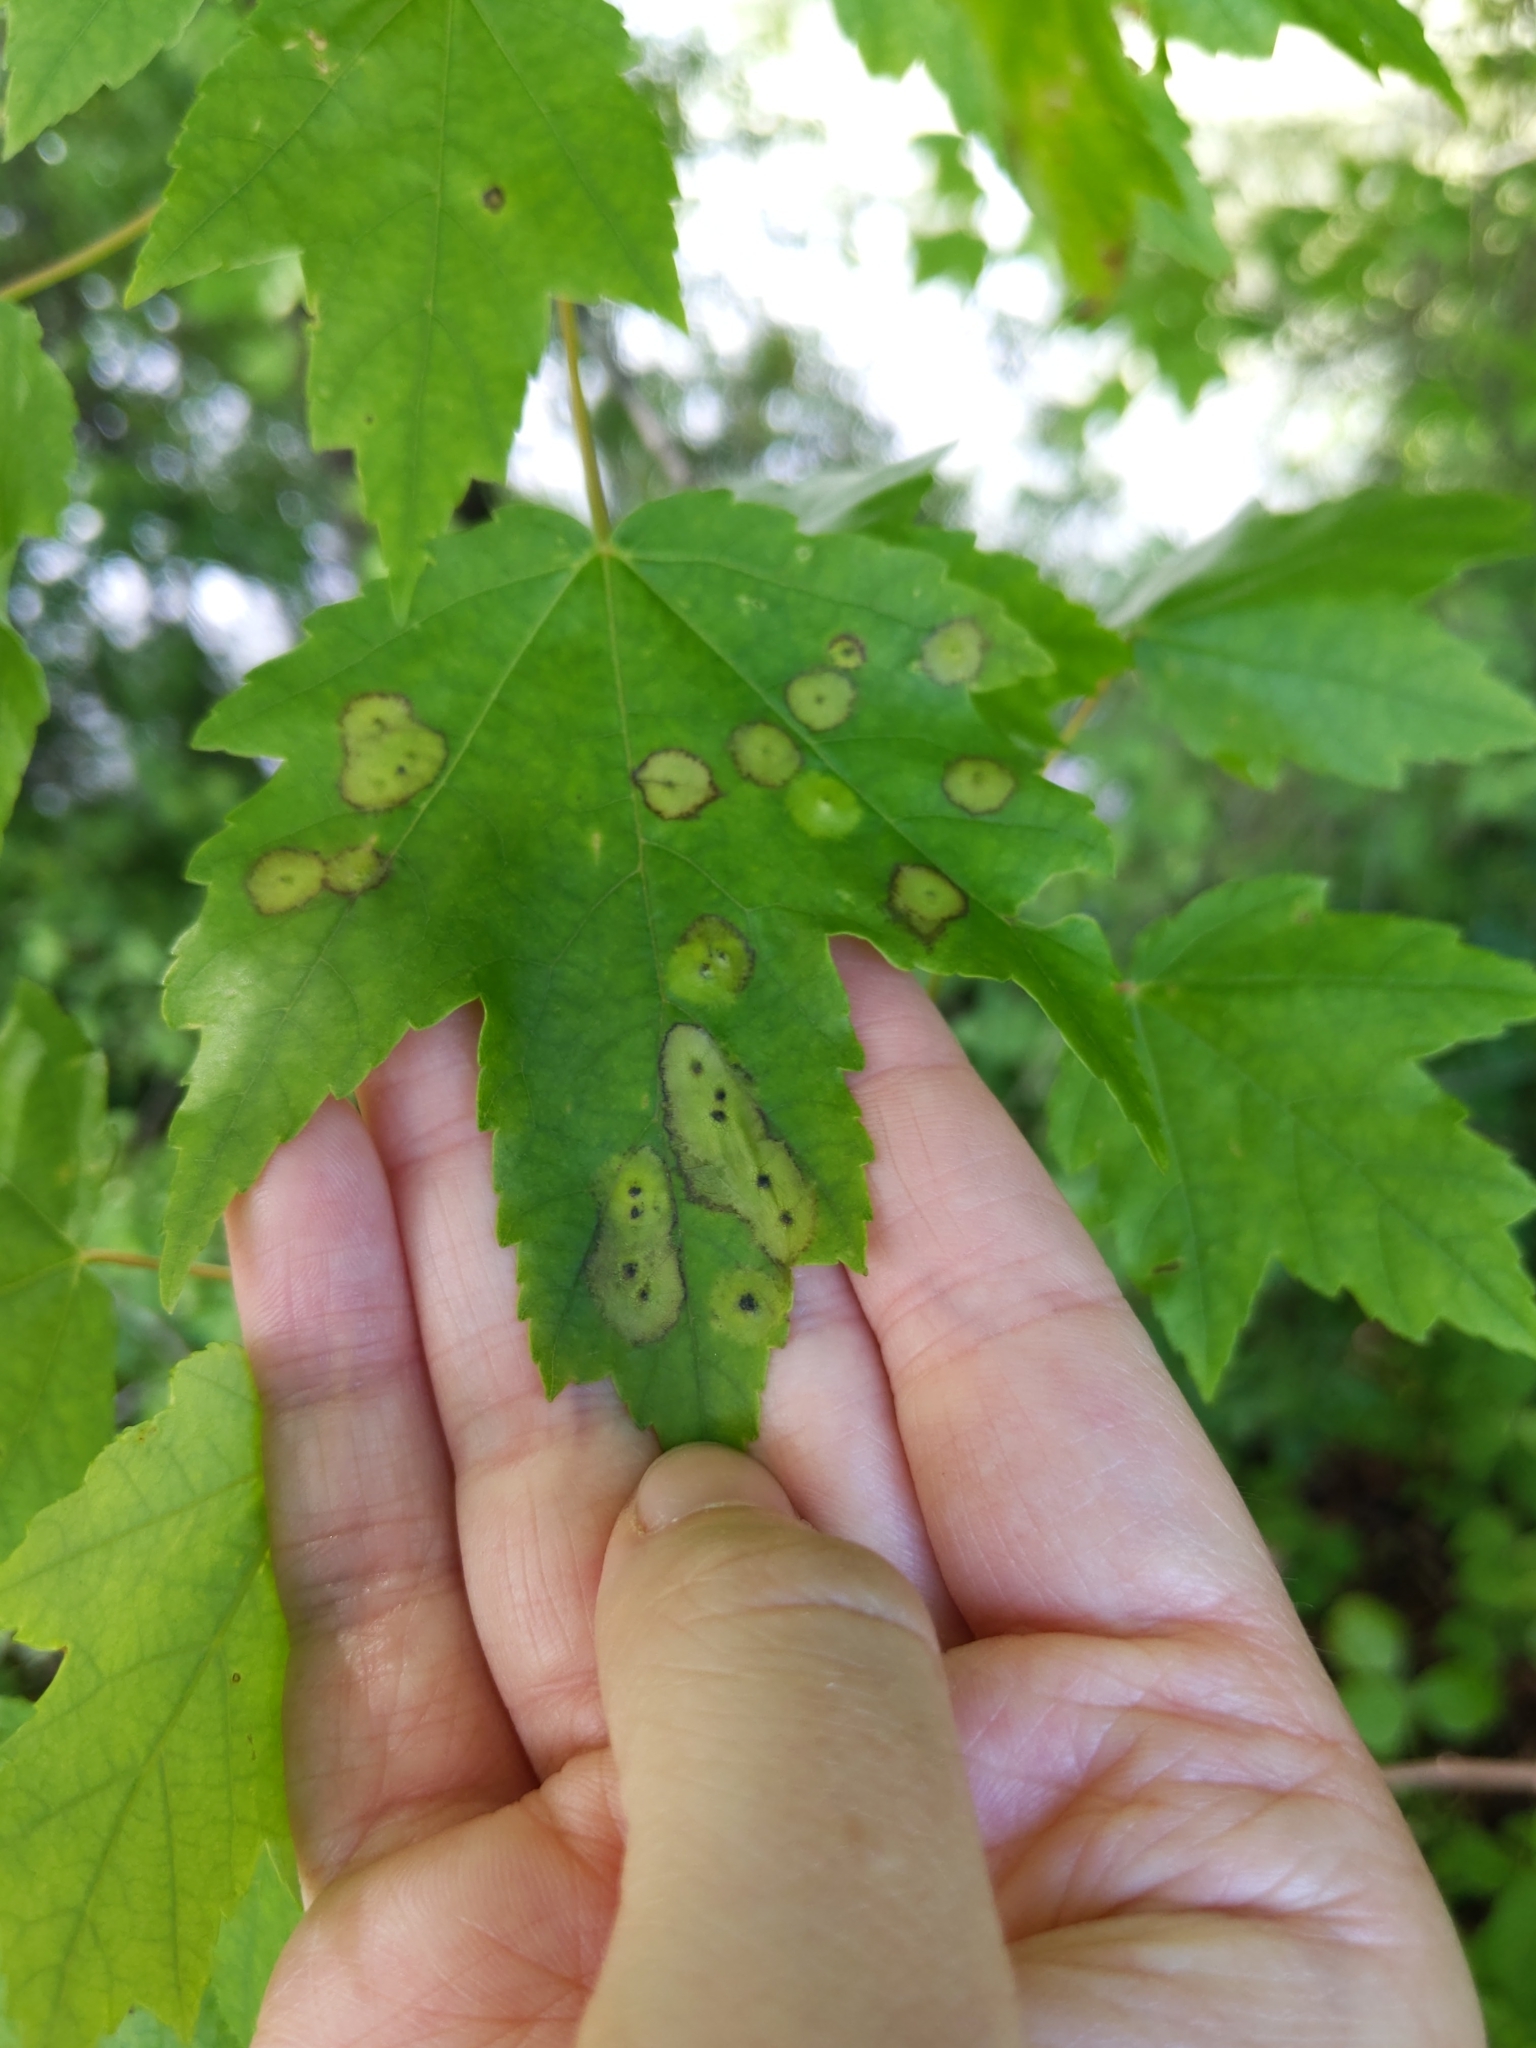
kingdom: Animalia
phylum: Arthropoda
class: Insecta
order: Diptera
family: Cecidomyiidae
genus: Acericecis
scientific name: Acericecis ocellaris
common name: Ocellate gall midge
